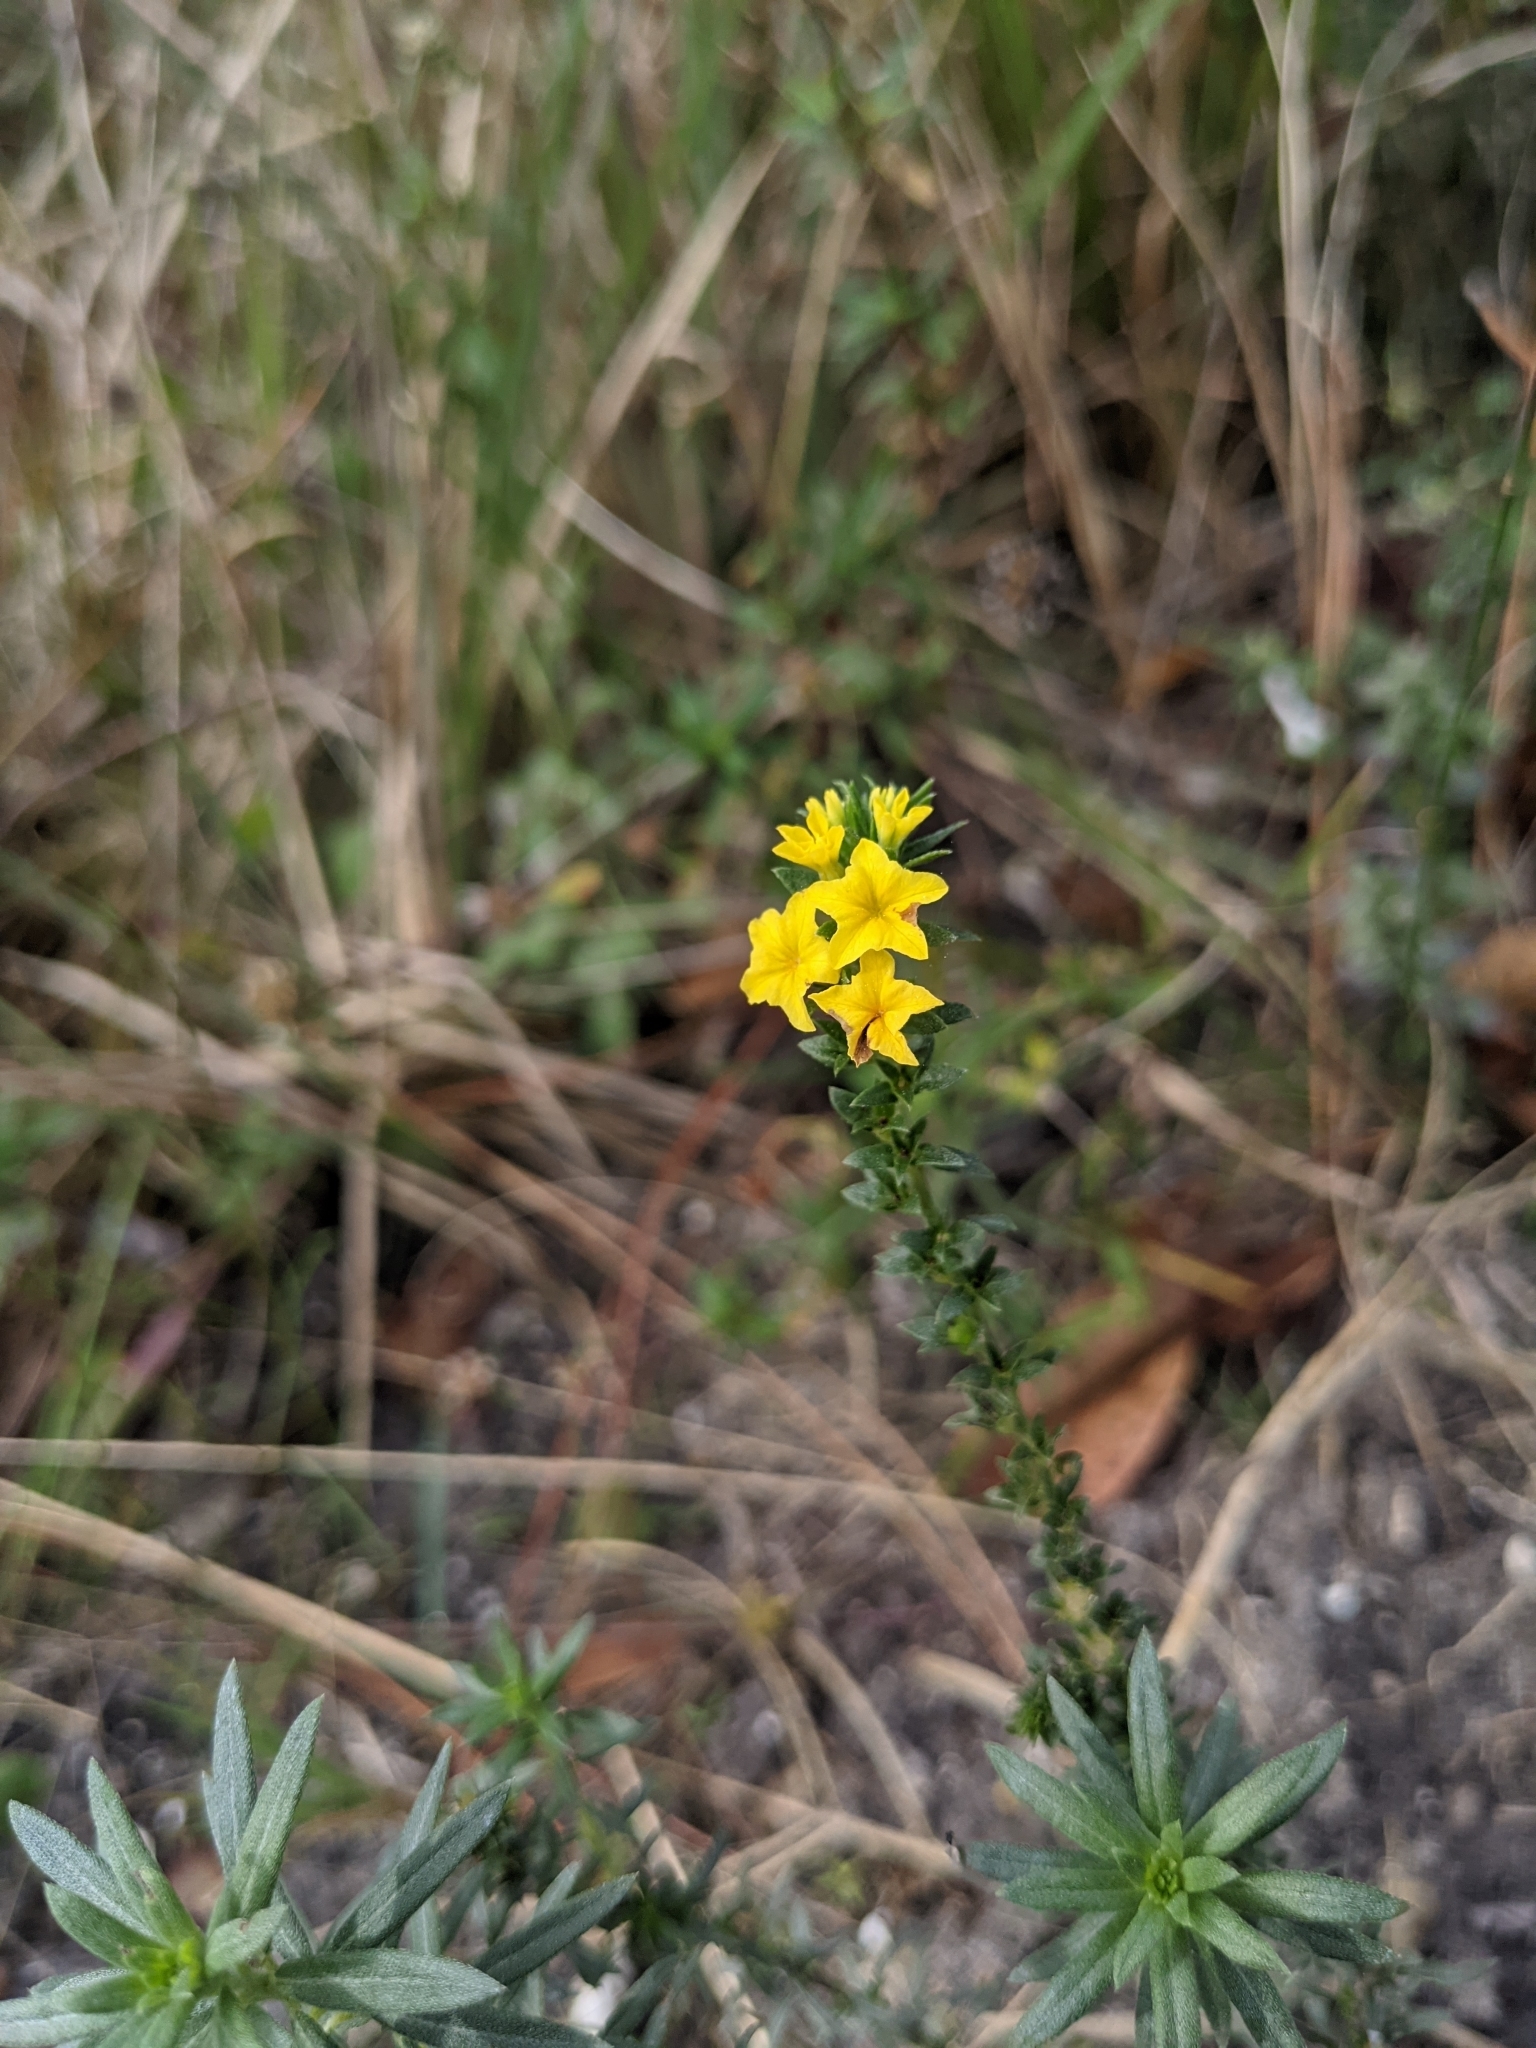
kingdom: Plantae
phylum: Tracheophyta
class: Magnoliopsida
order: Boraginales
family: Heliotropiaceae
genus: Euploca
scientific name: Euploca polyphylla
